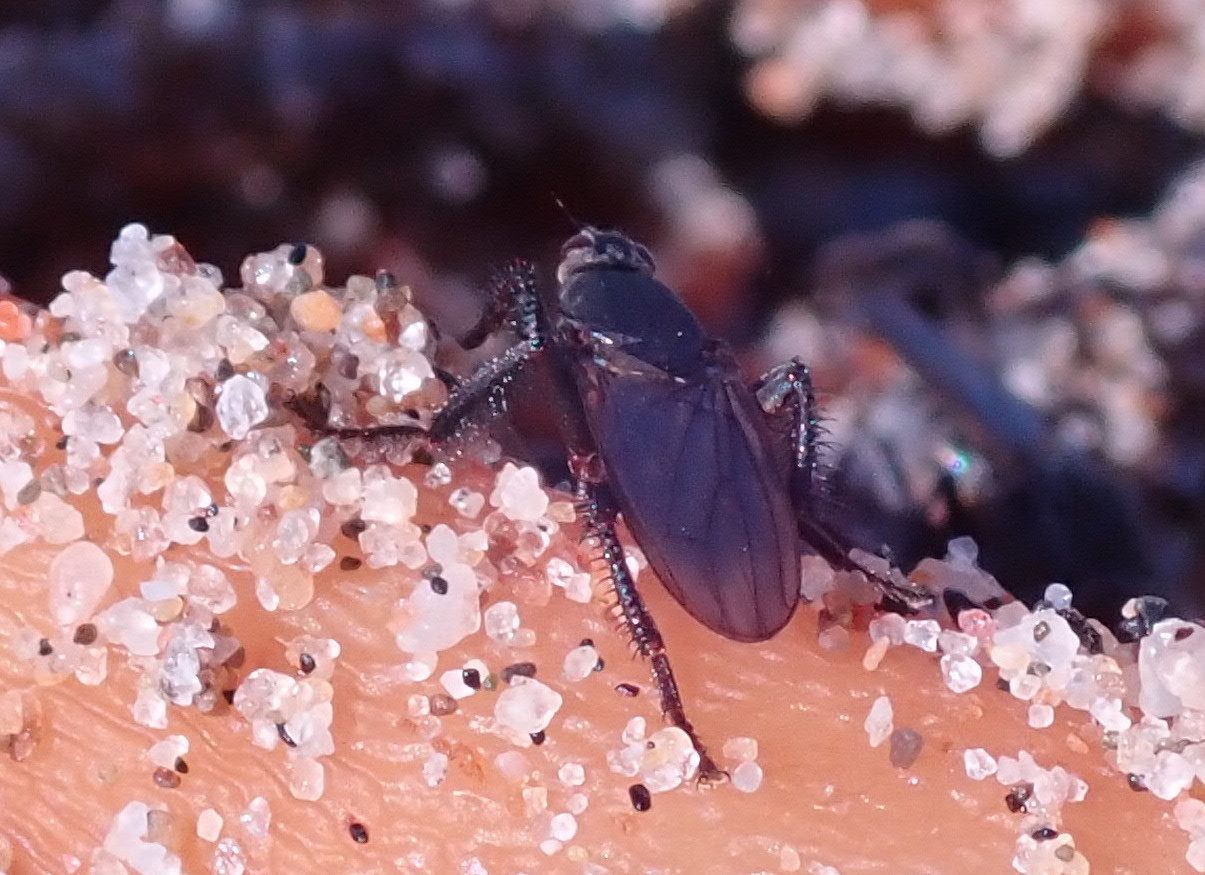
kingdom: Animalia
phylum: Arthropoda
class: Insecta
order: Diptera
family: Coelopidae
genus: Coelopa
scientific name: Coelopa vanduzeei
